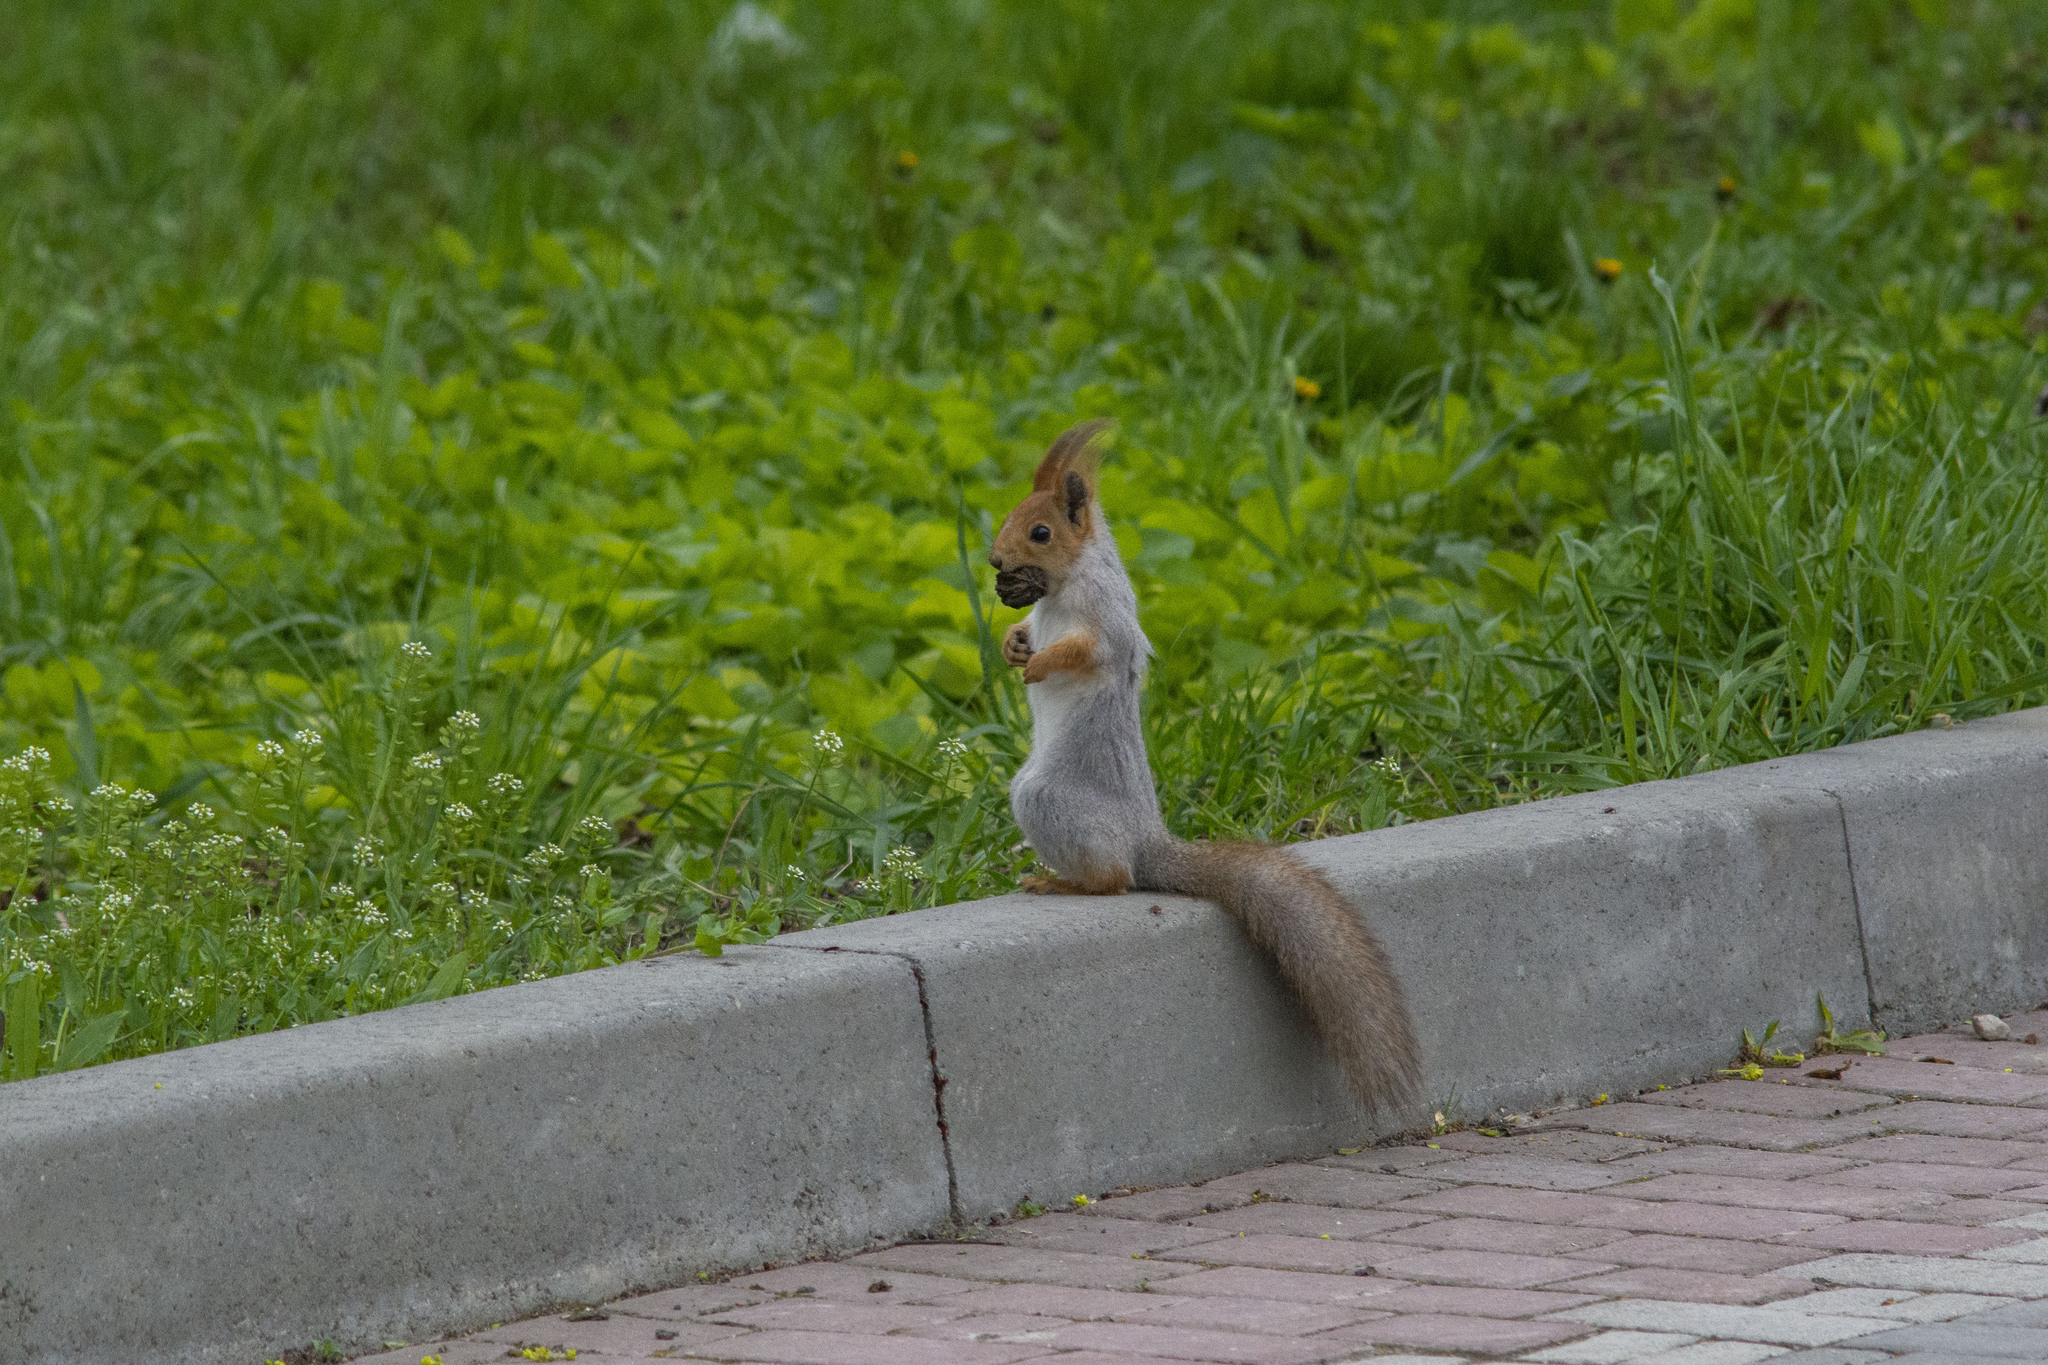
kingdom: Animalia
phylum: Chordata
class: Mammalia
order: Rodentia
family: Sciuridae
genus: Sciurus
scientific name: Sciurus vulgaris
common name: Eurasian red squirrel
